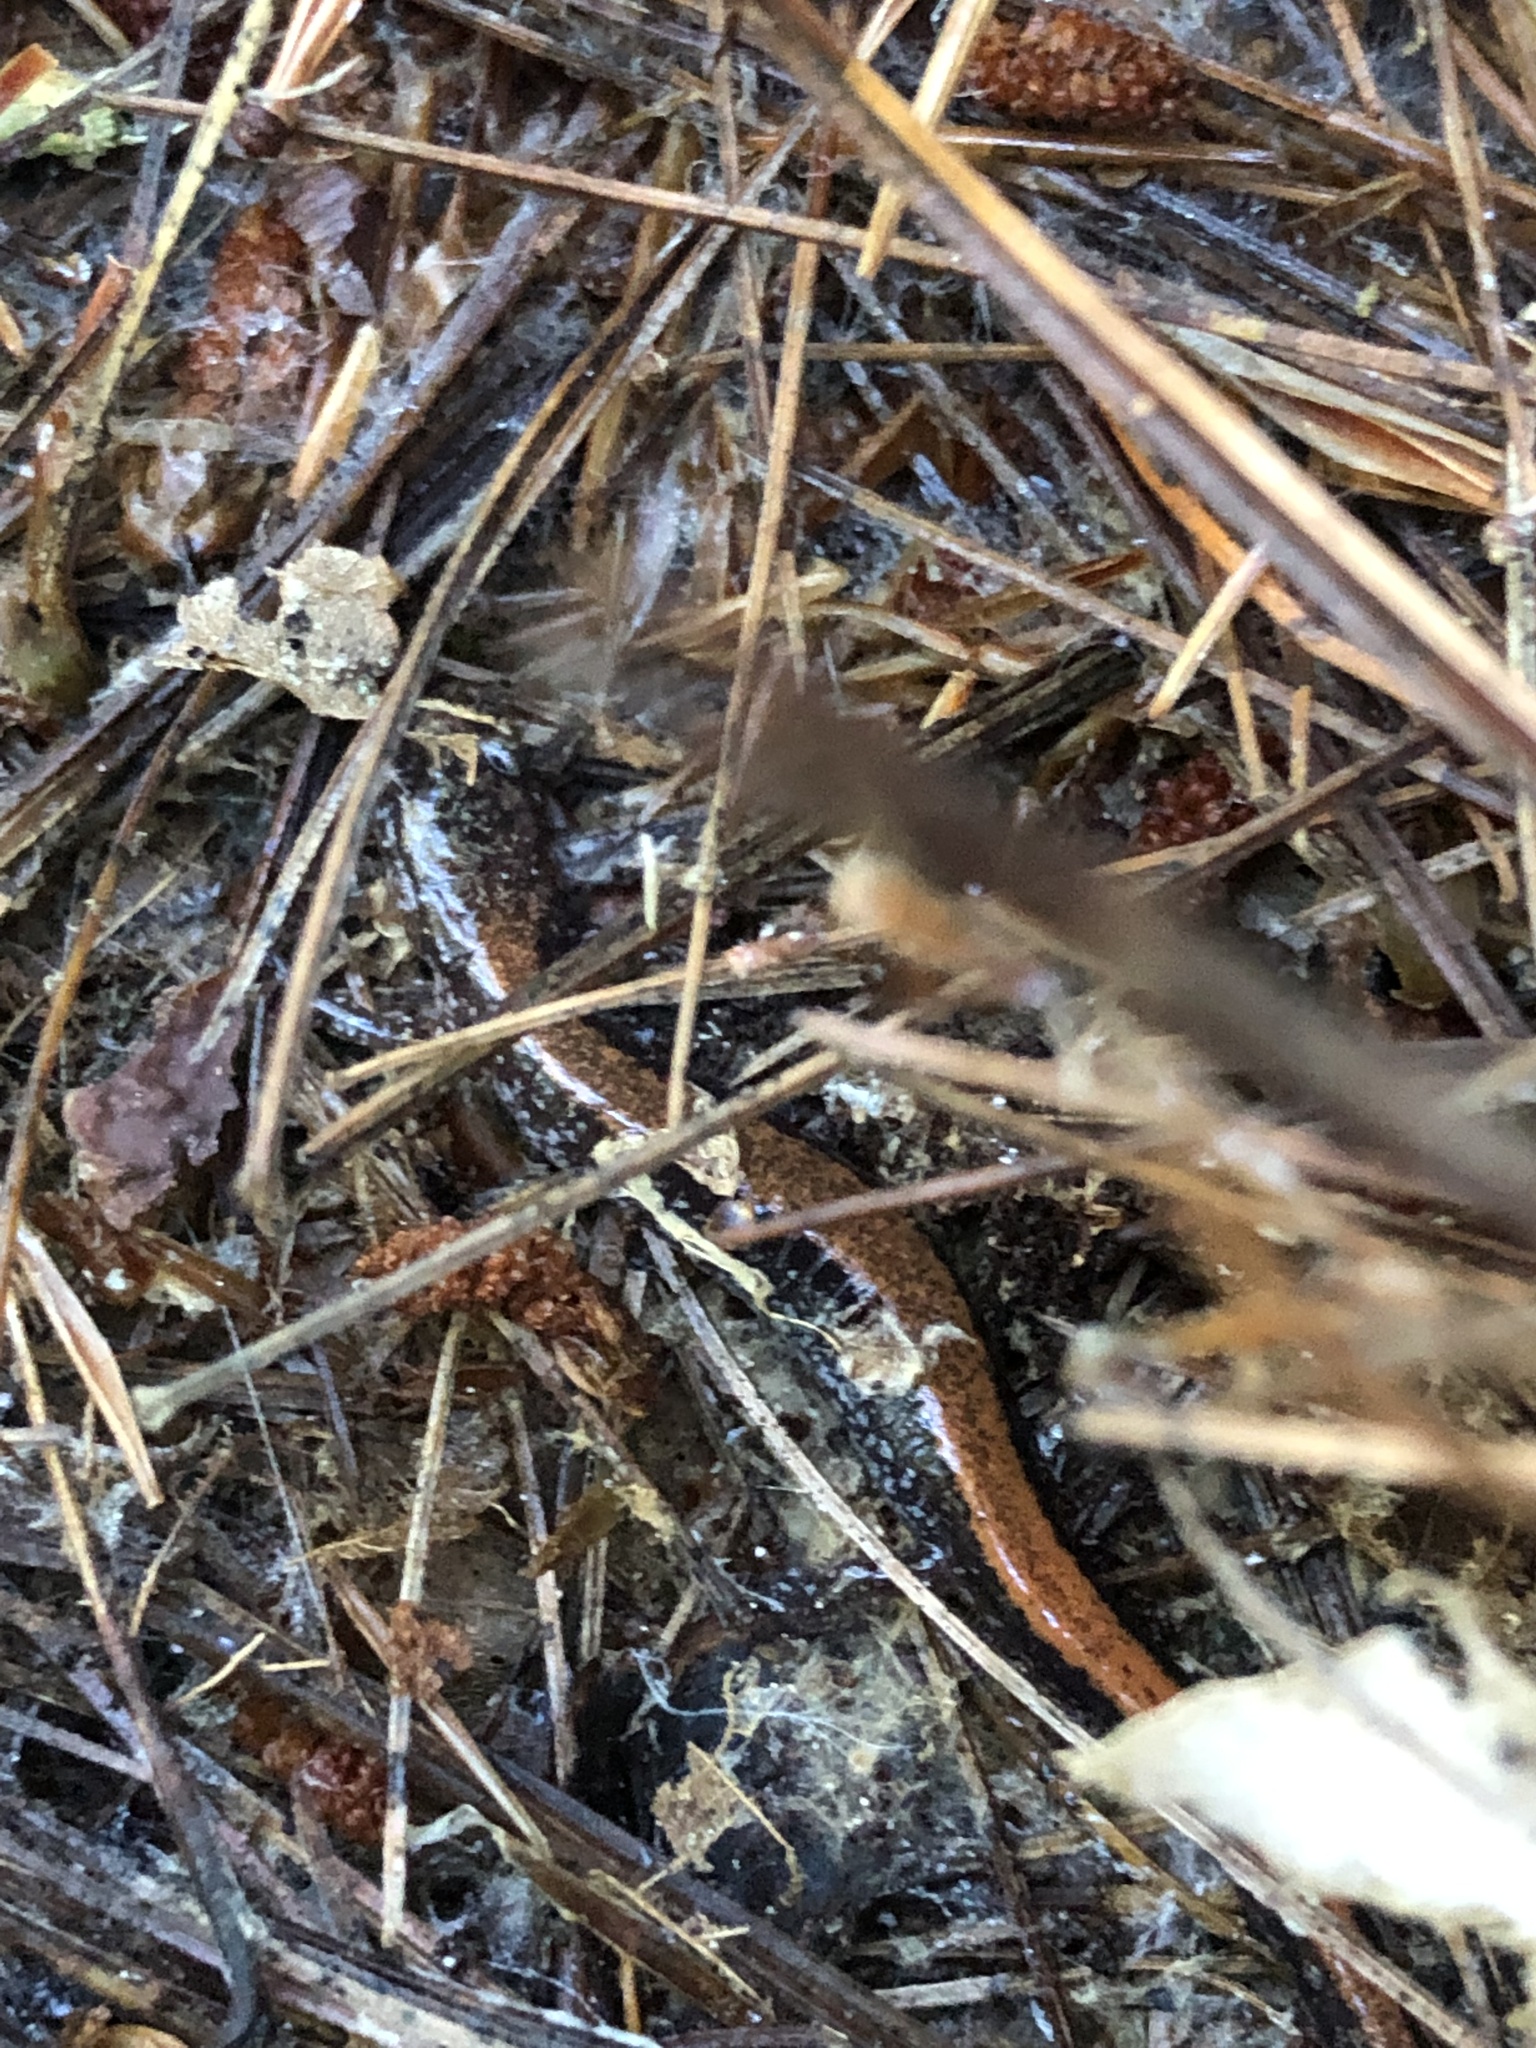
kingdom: Animalia
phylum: Chordata
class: Amphibia
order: Caudata
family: Plethodontidae
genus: Plethodon
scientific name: Plethodon cinereus
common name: Redback salamander
